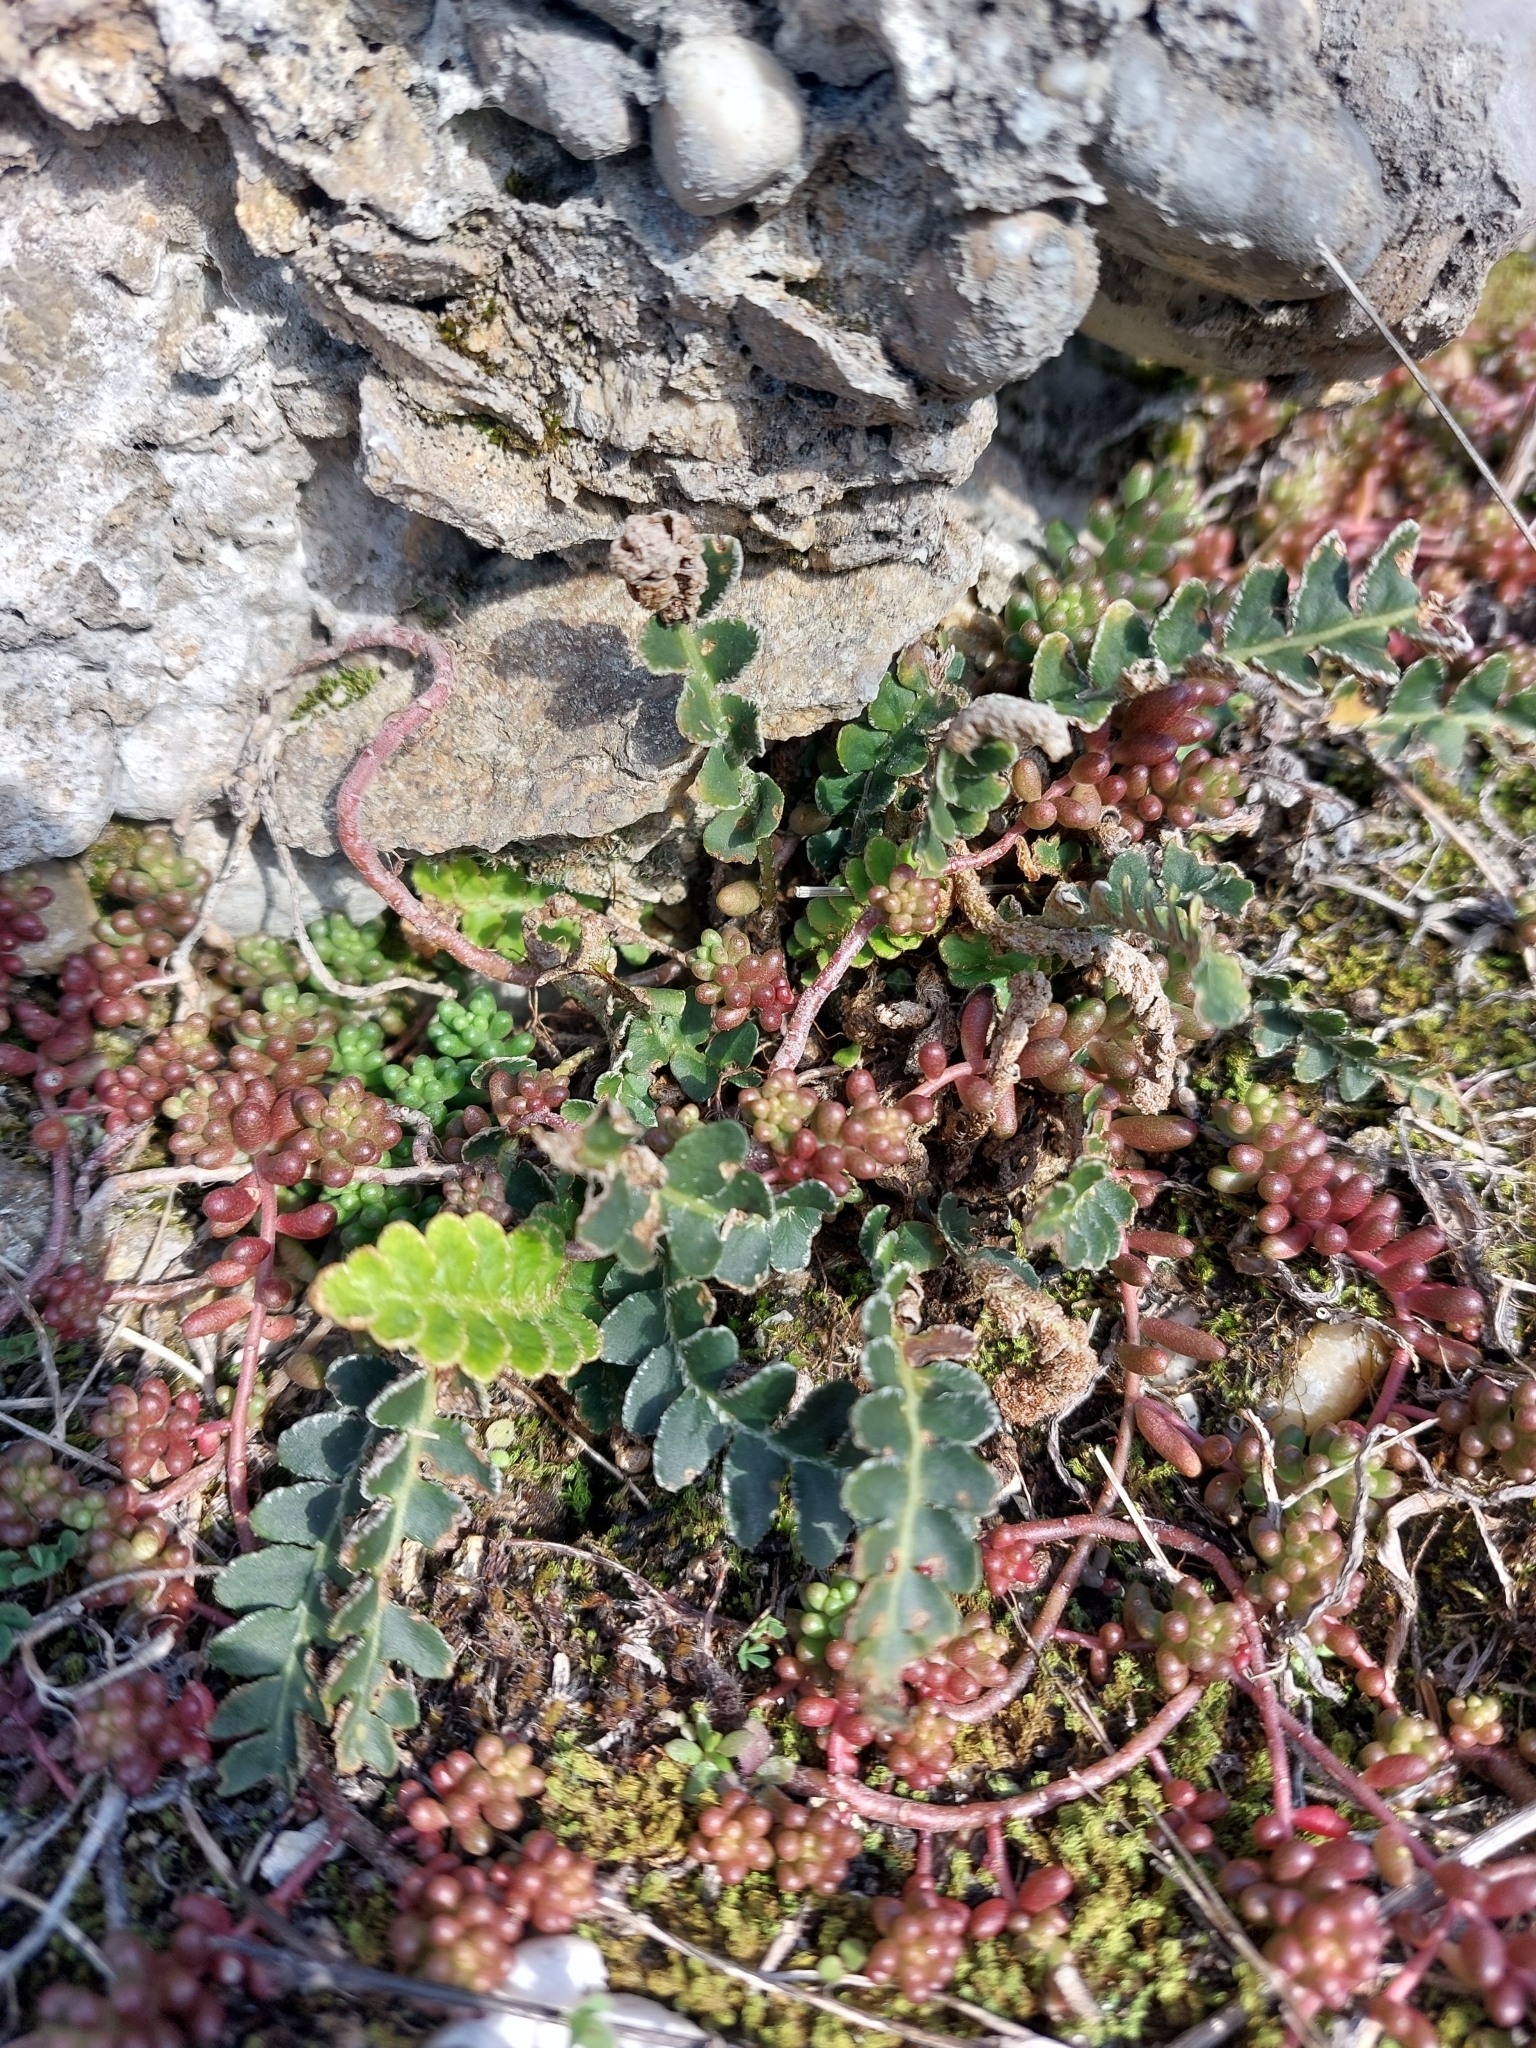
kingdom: Plantae
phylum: Tracheophyta
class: Polypodiopsida
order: Polypodiales
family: Aspleniaceae
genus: Asplenium
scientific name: Asplenium ceterach
